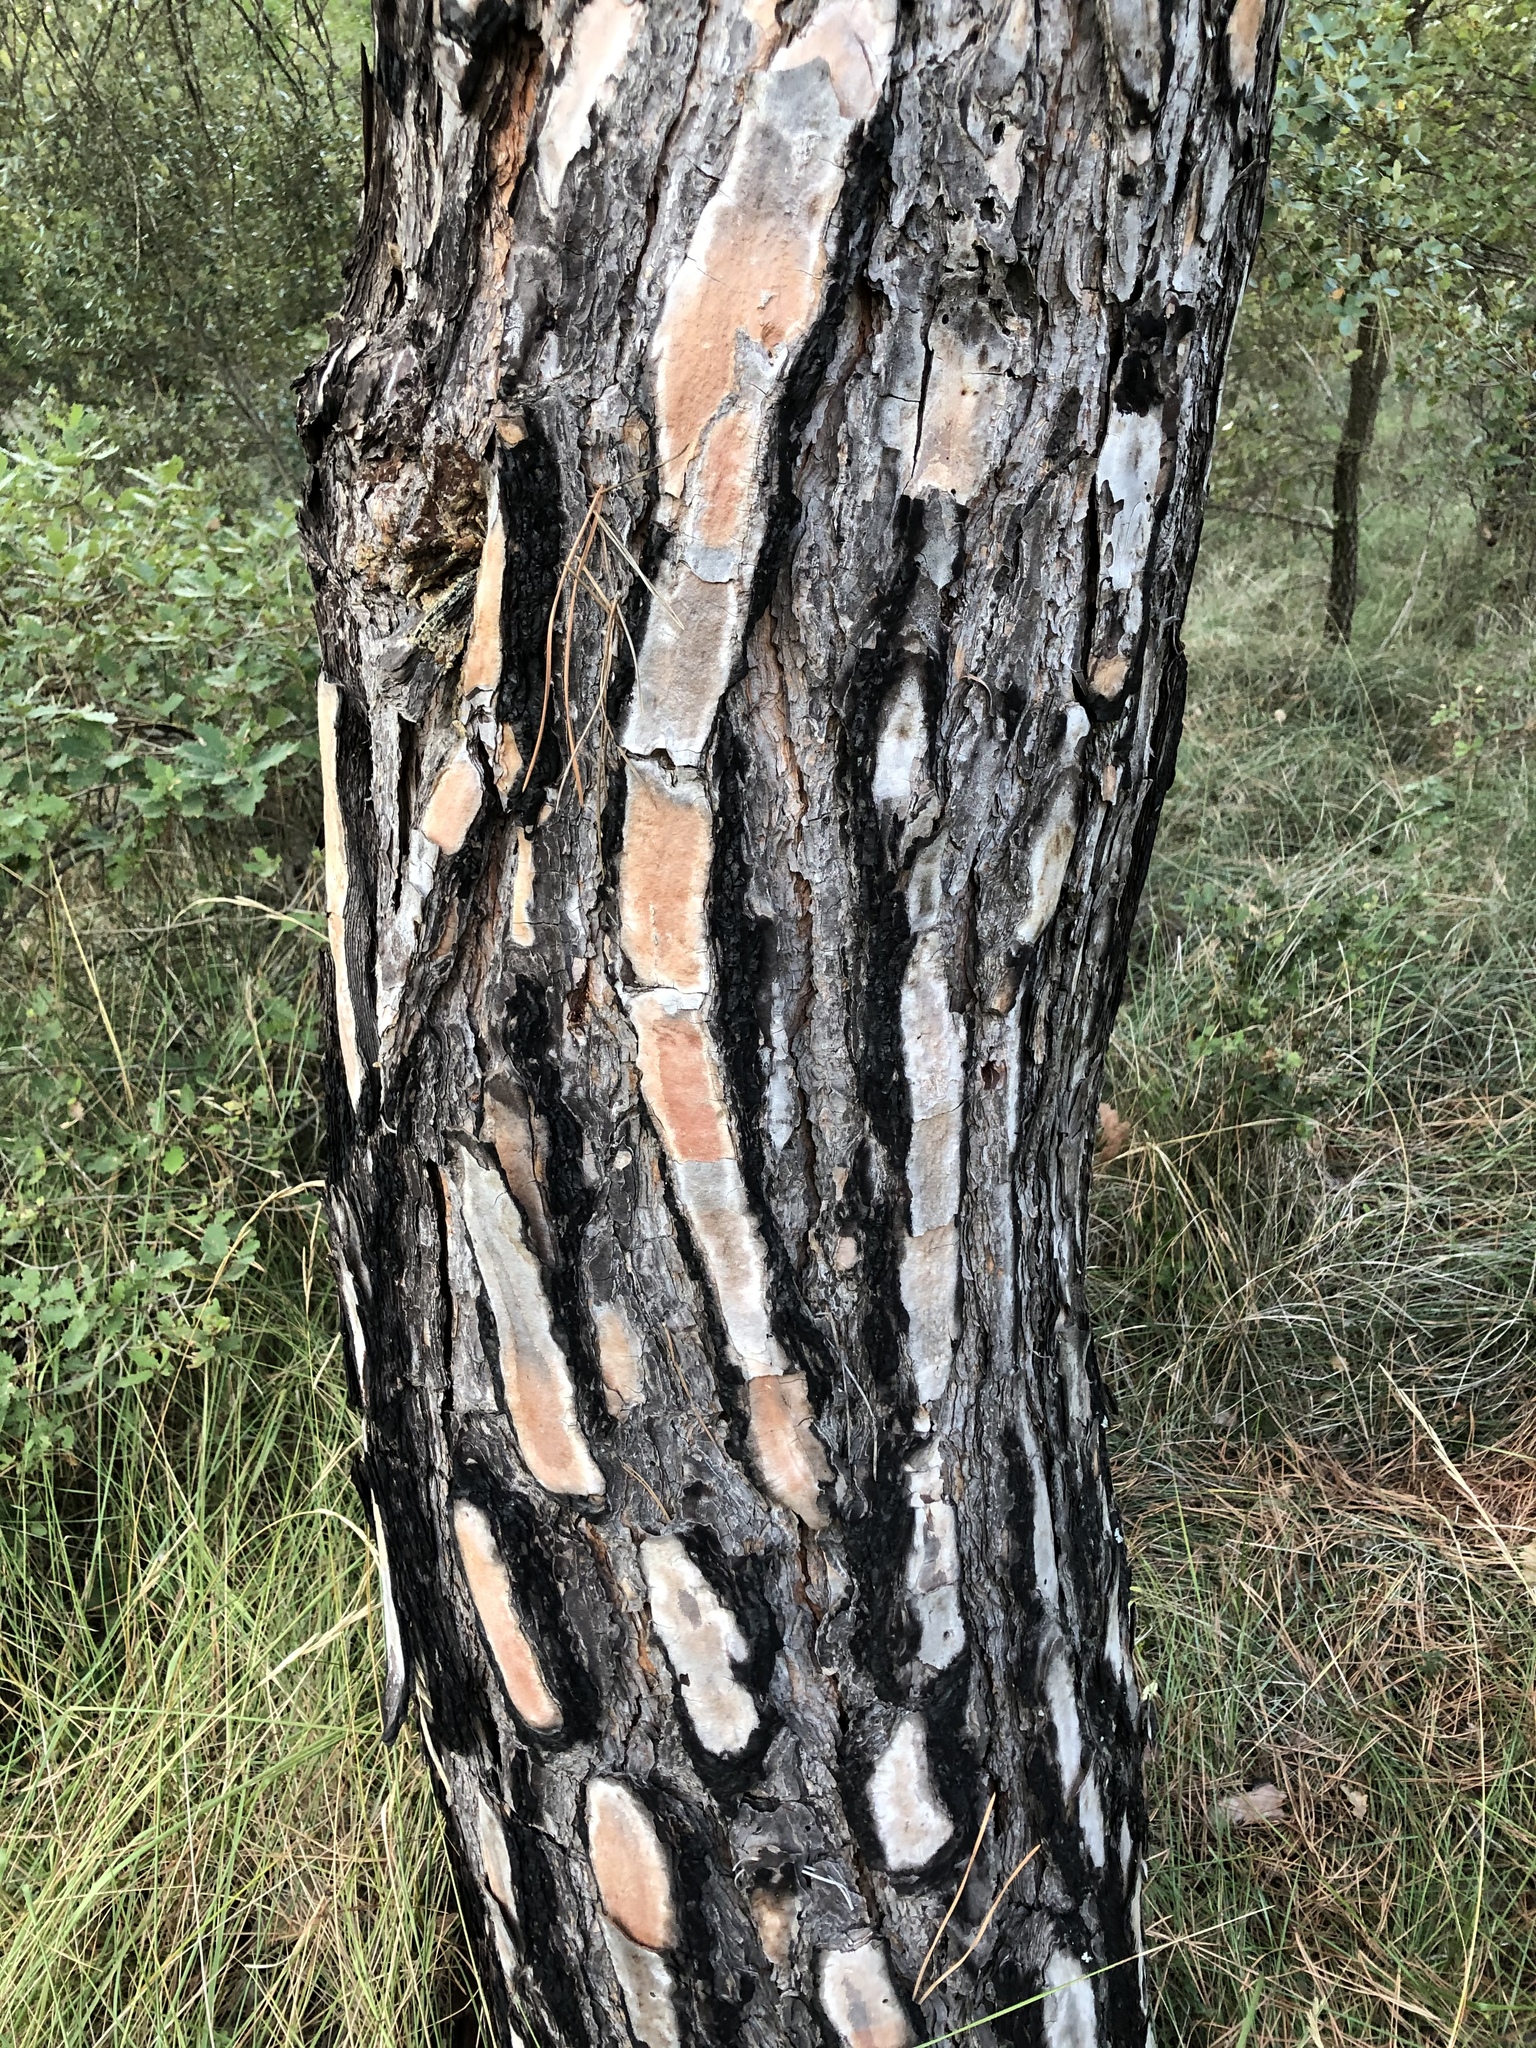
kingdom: Plantae
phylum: Tracheophyta
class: Pinopsida
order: Pinales
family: Pinaceae
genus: Pinus
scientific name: Pinus pinea
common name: Italian stone pine
